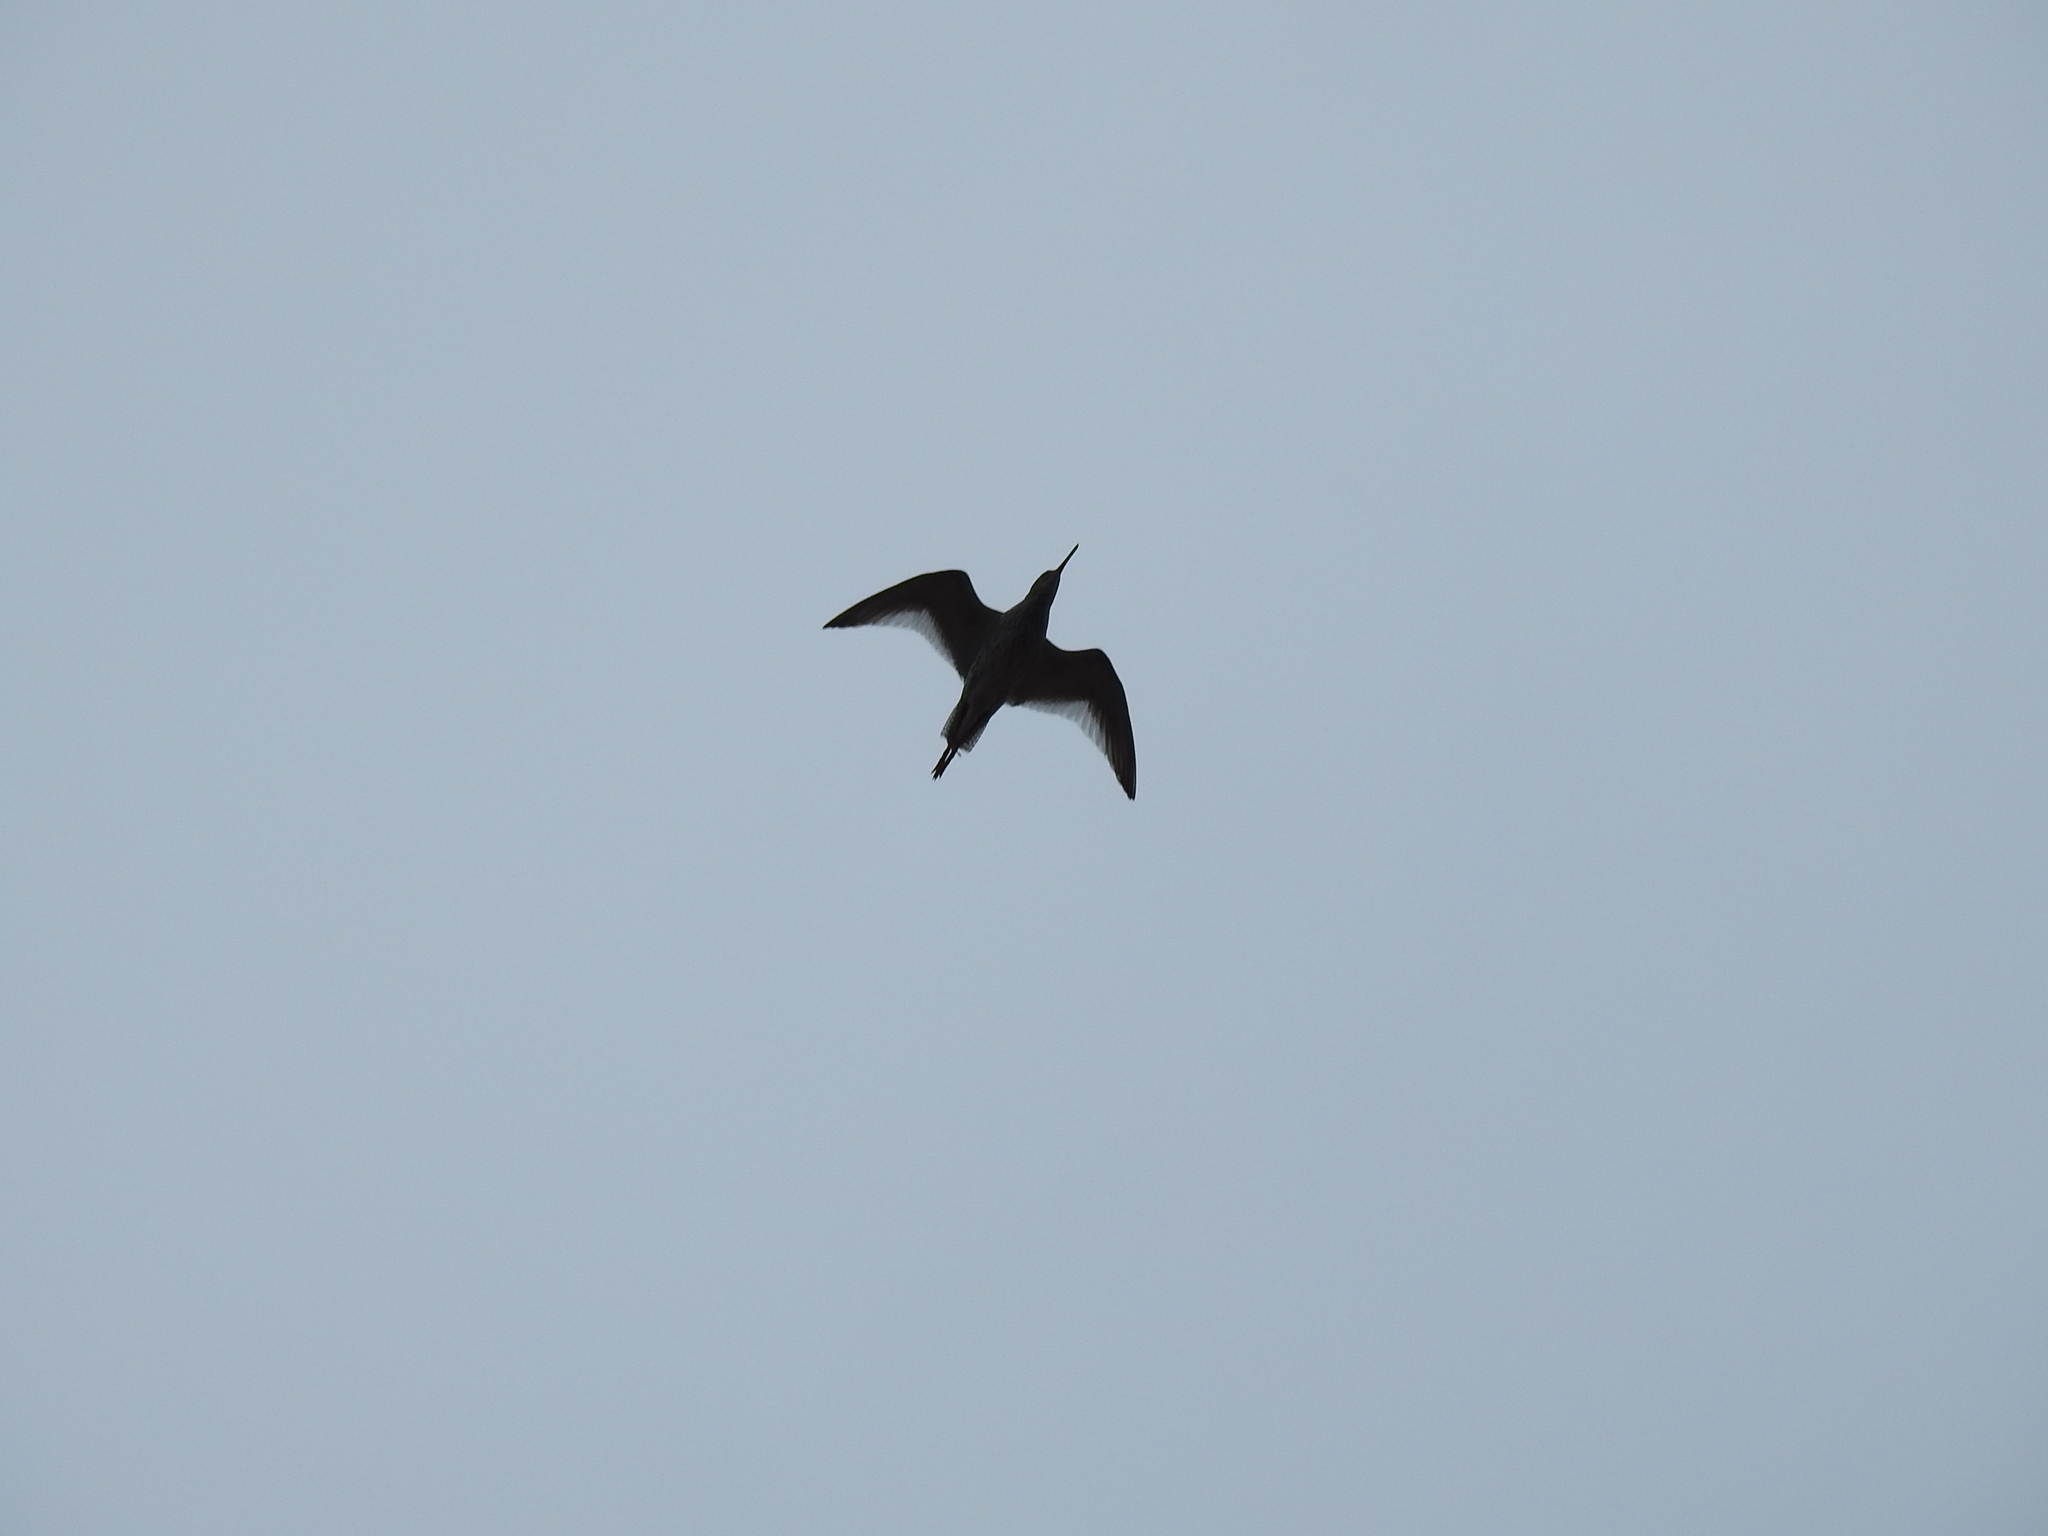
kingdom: Animalia
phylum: Chordata
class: Aves
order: Charadriiformes
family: Scolopacidae
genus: Tringa
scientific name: Tringa totanus
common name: Common redshank
